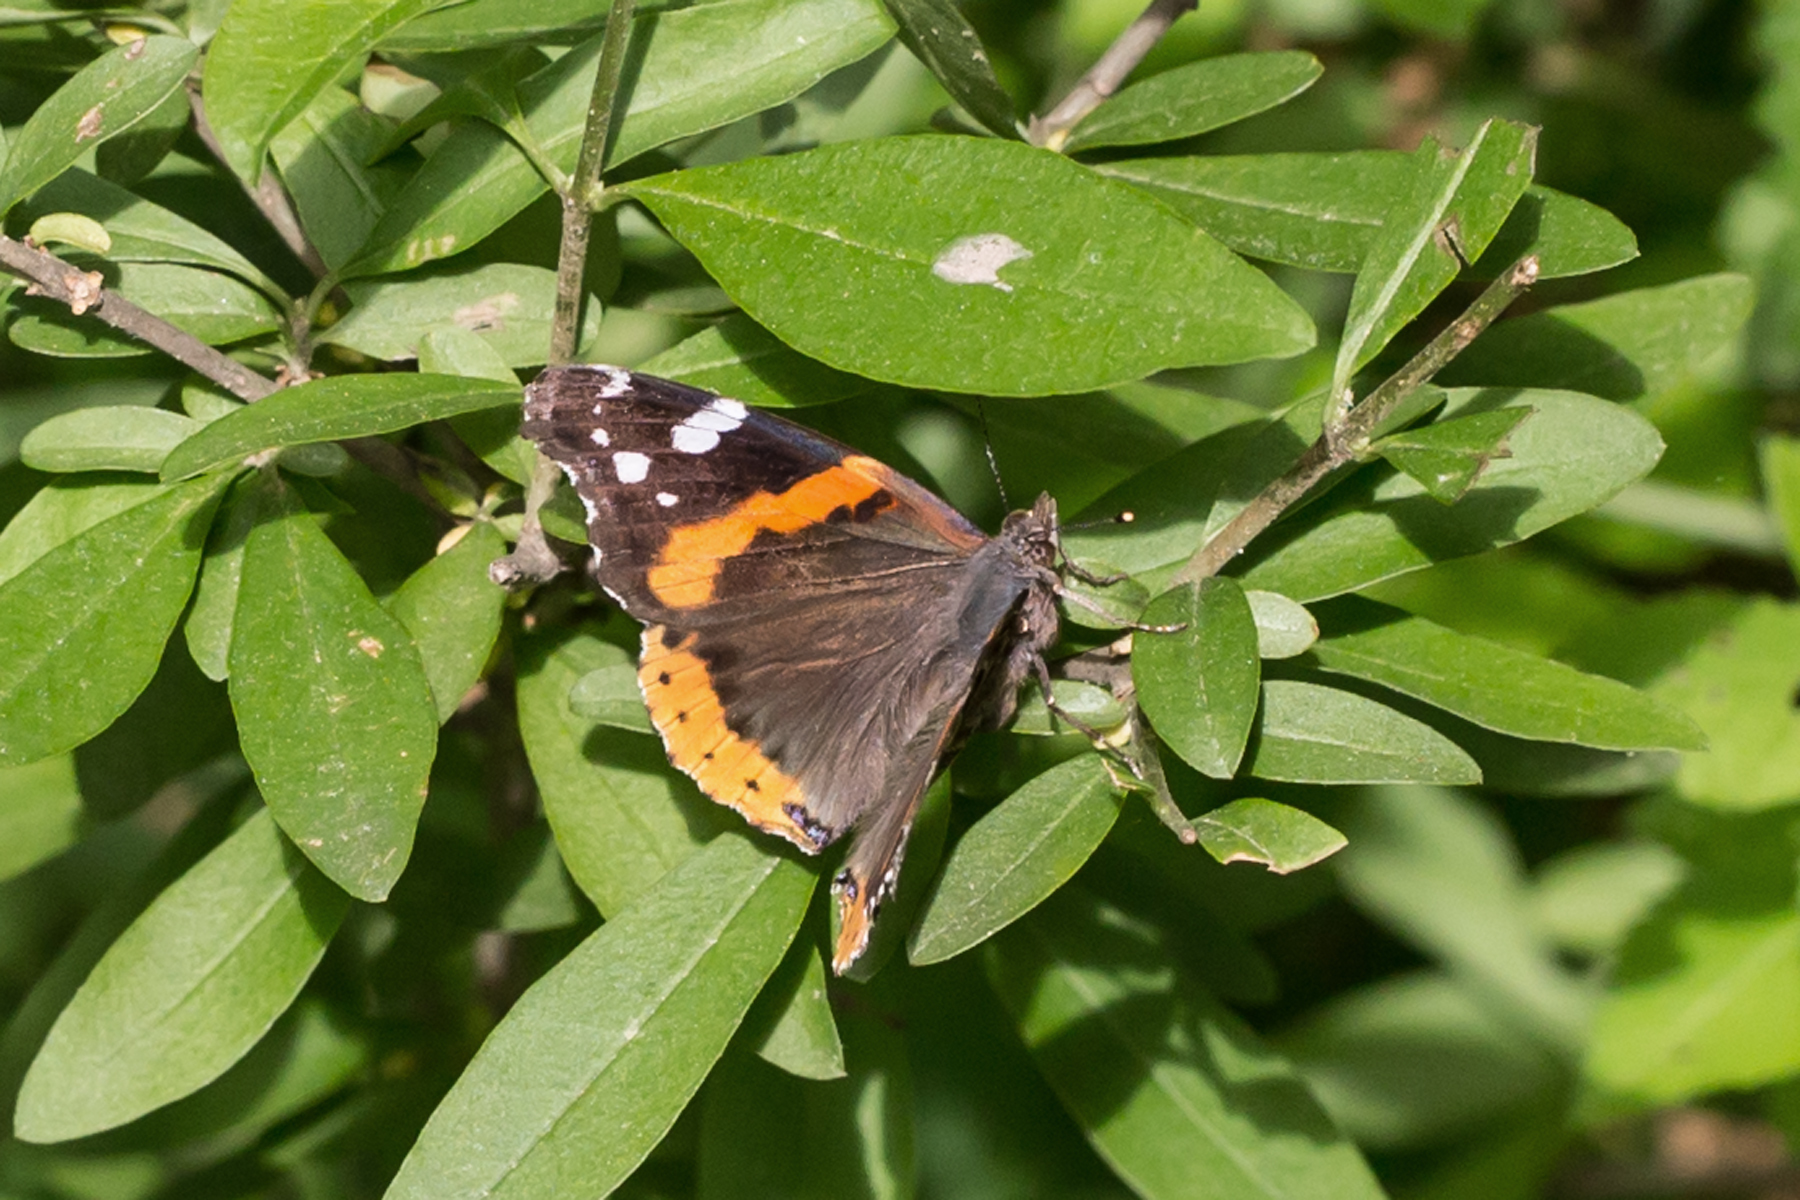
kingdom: Animalia
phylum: Arthropoda
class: Insecta
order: Lepidoptera
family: Nymphalidae
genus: Vanessa
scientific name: Vanessa atalanta
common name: Red admiral
